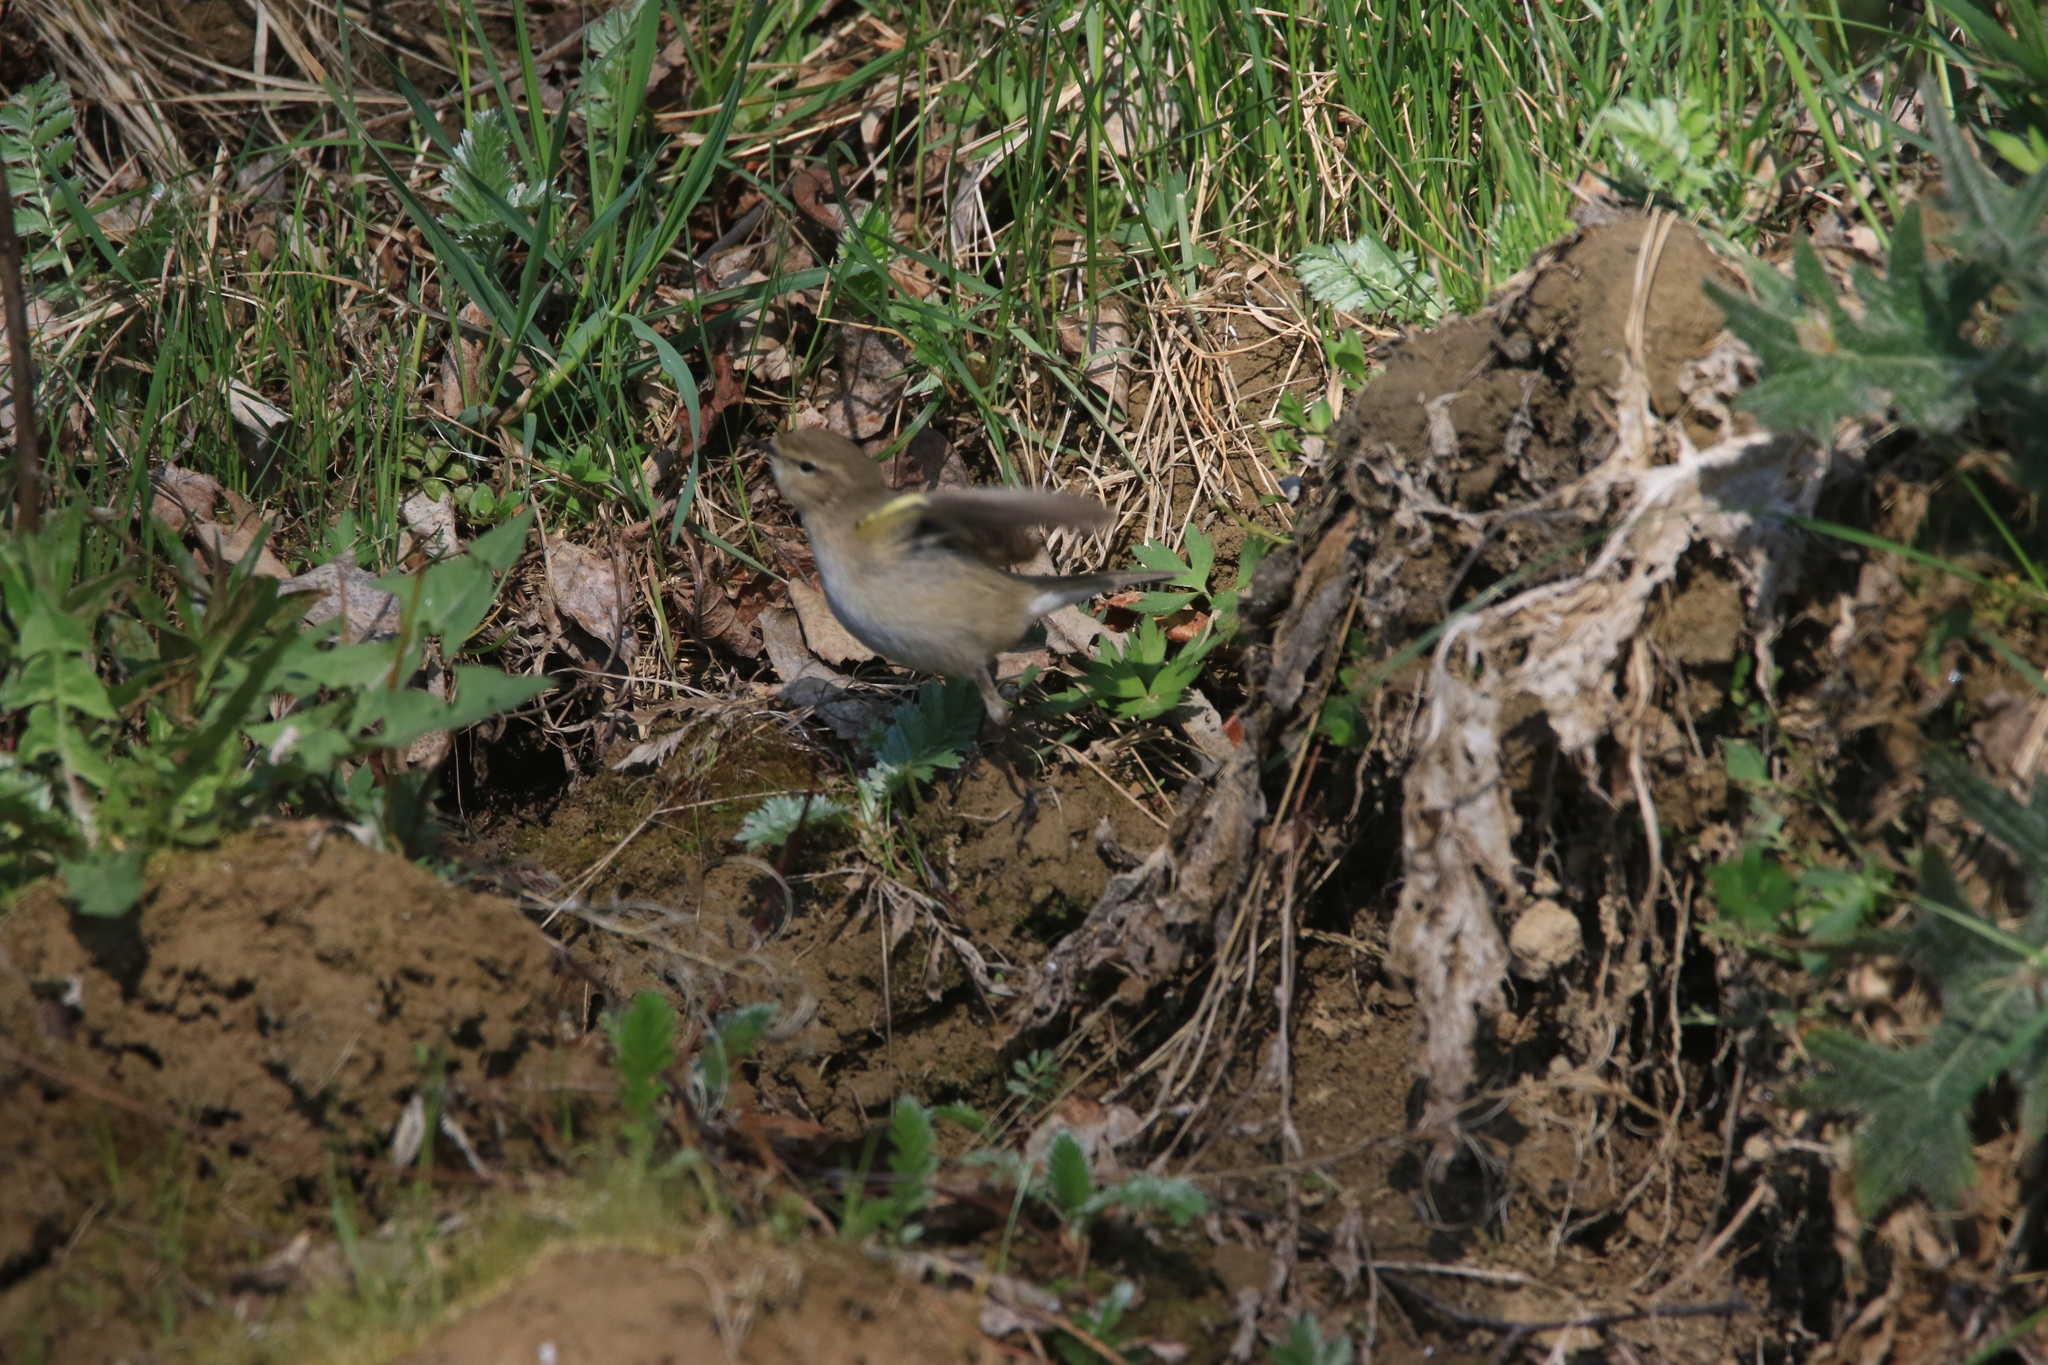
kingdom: Animalia
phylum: Chordata
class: Aves
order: Passeriformes
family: Phylloscopidae
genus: Phylloscopus
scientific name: Phylloscopus collybita
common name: Common chiffchaff
